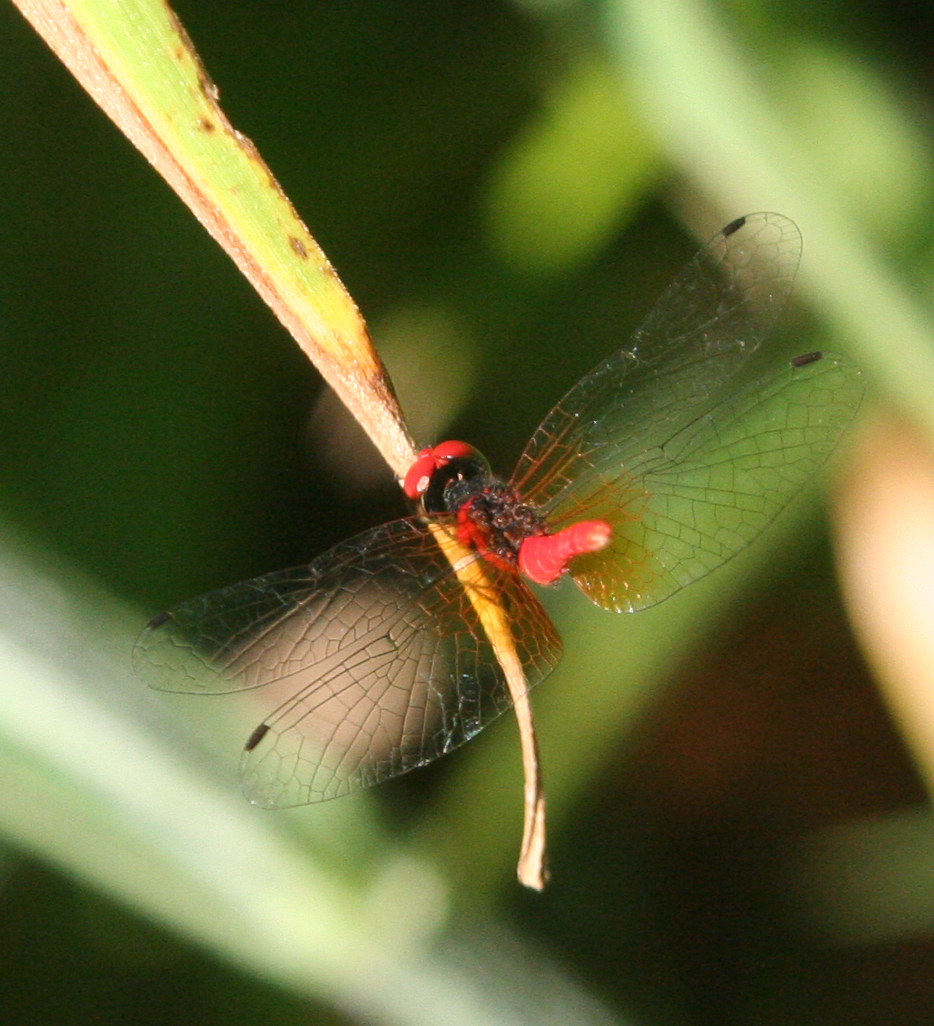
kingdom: Animalia
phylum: Arthropoda
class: Insecta
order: Odonata
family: Libellulidae
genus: Nannophya
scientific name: Nannophya pygmaea
